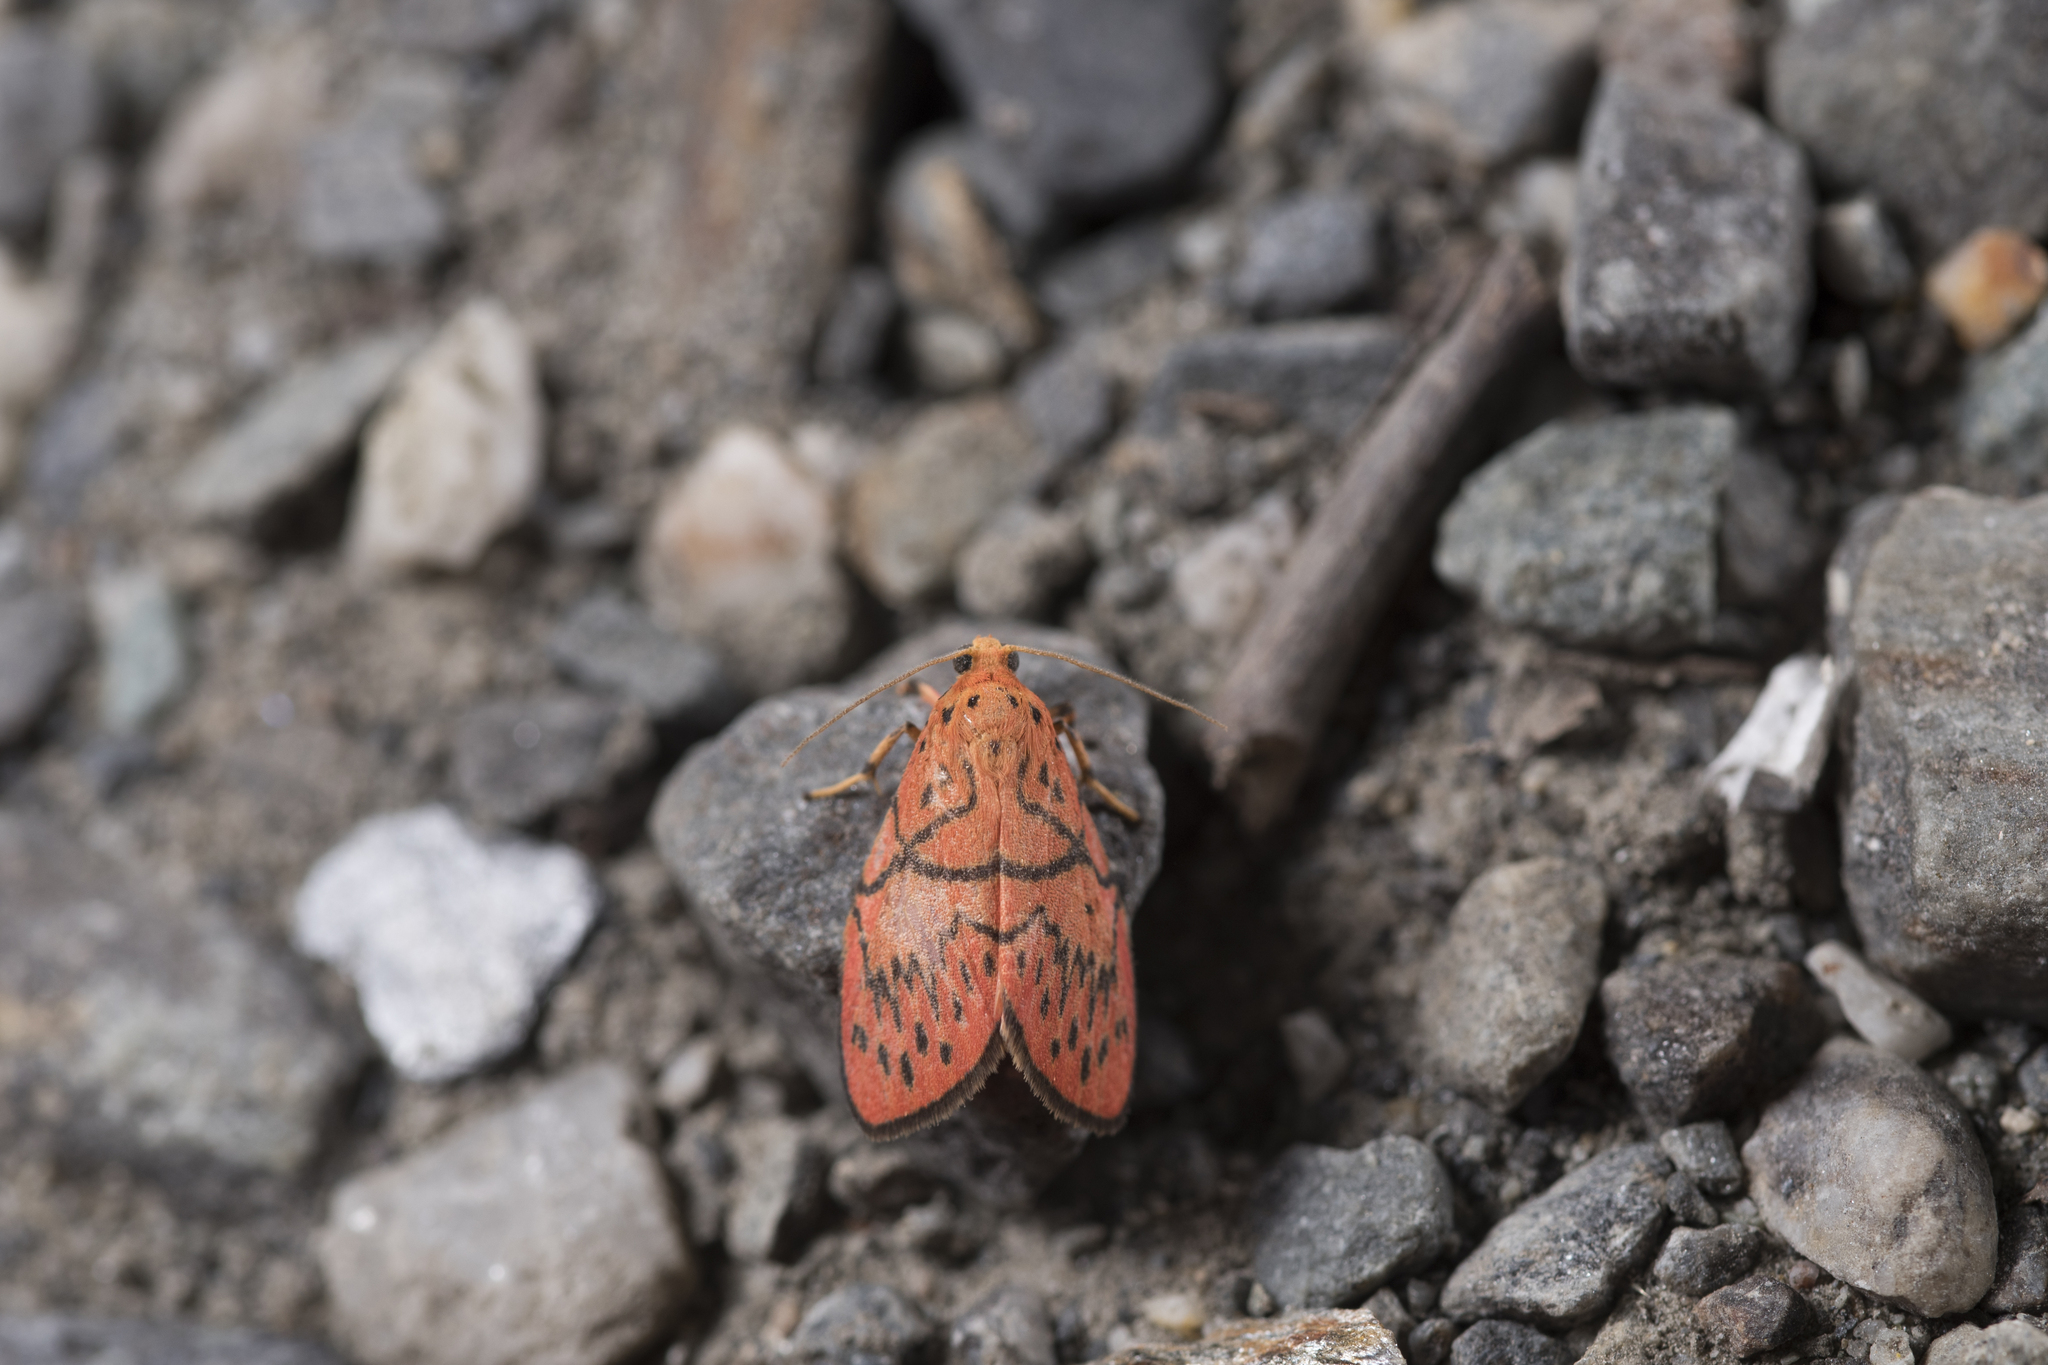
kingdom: Animalia
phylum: Arthropoda
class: Insecta
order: Lepidoptera
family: Erebidae
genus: Aberrasine
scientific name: Aberrasine lichenshihi
